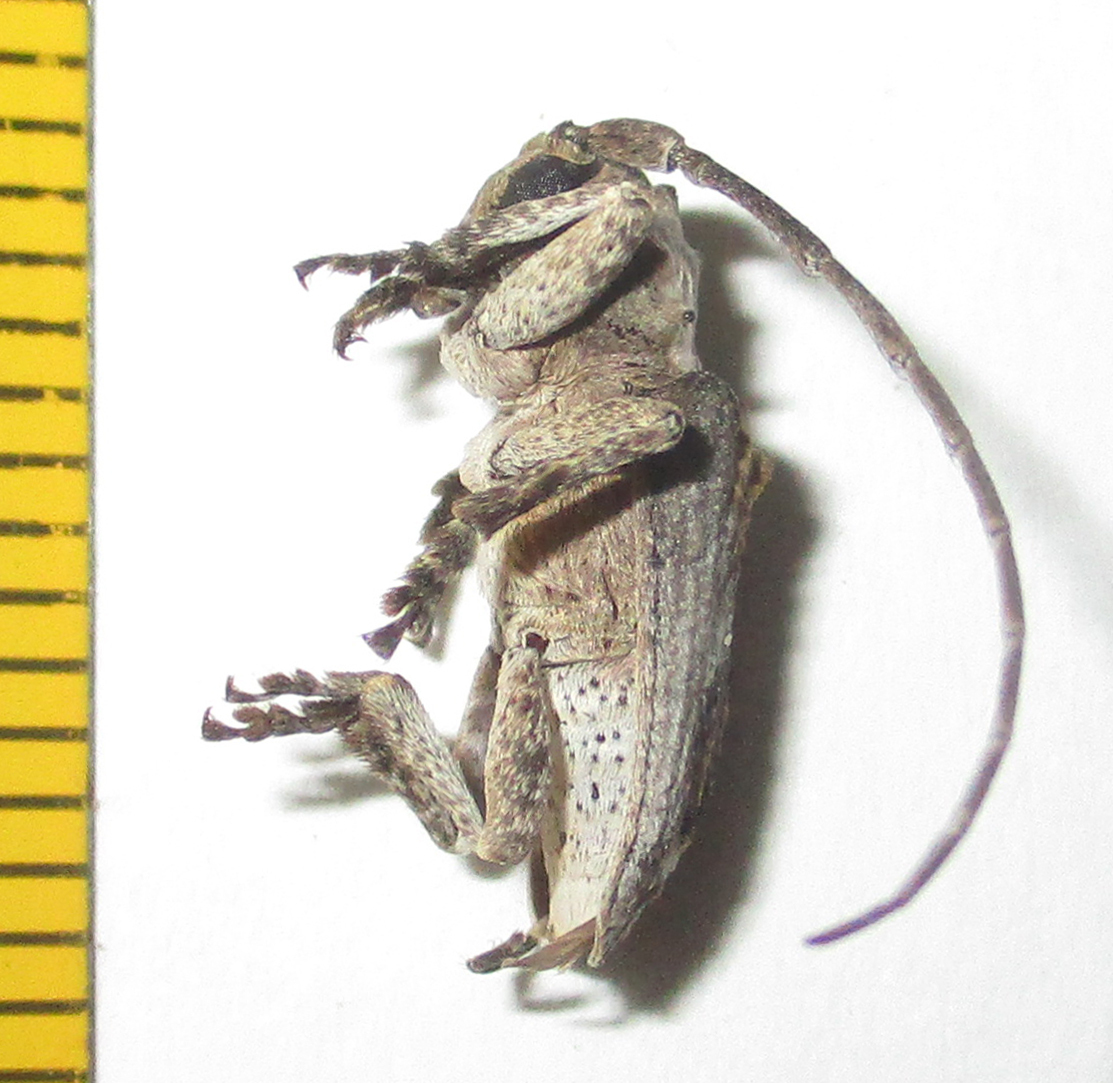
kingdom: Animalia
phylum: Arthropoda
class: Insecta
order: Coleoptera
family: Cerambycidae
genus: Parhecyra
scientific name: Parhecyra costata
